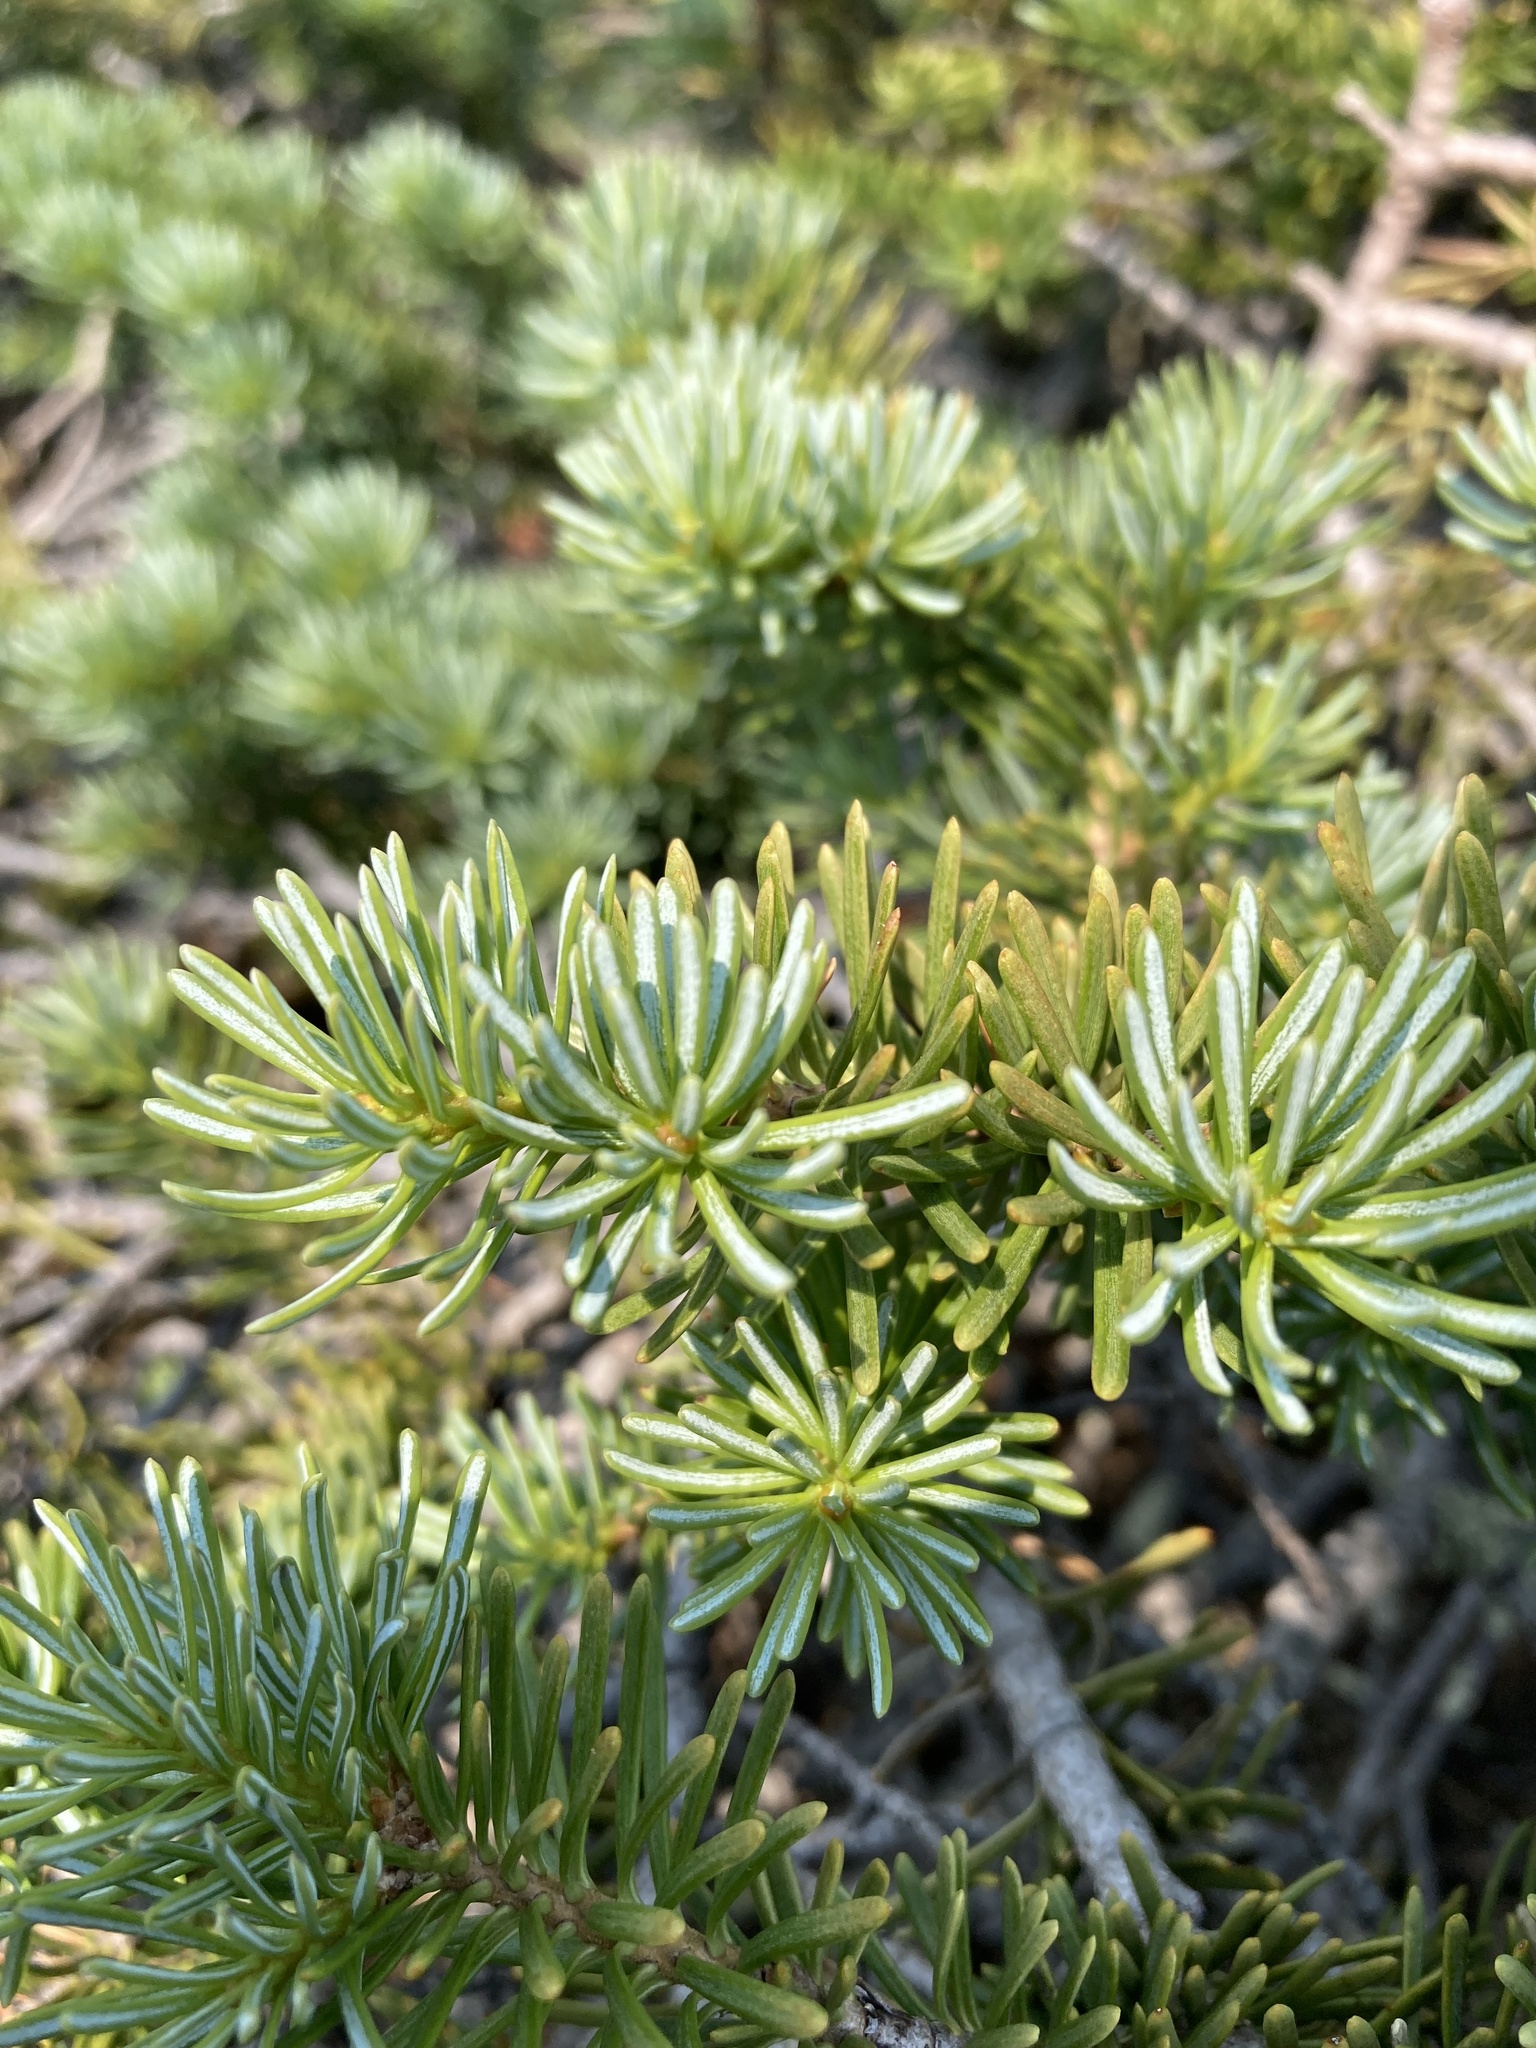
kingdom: Plantae
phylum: Tracheophyta
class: Pinopsida
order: Pinales
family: Pinaceae
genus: Abies
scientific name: Abies lasiocarpa
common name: Subalpine fir
